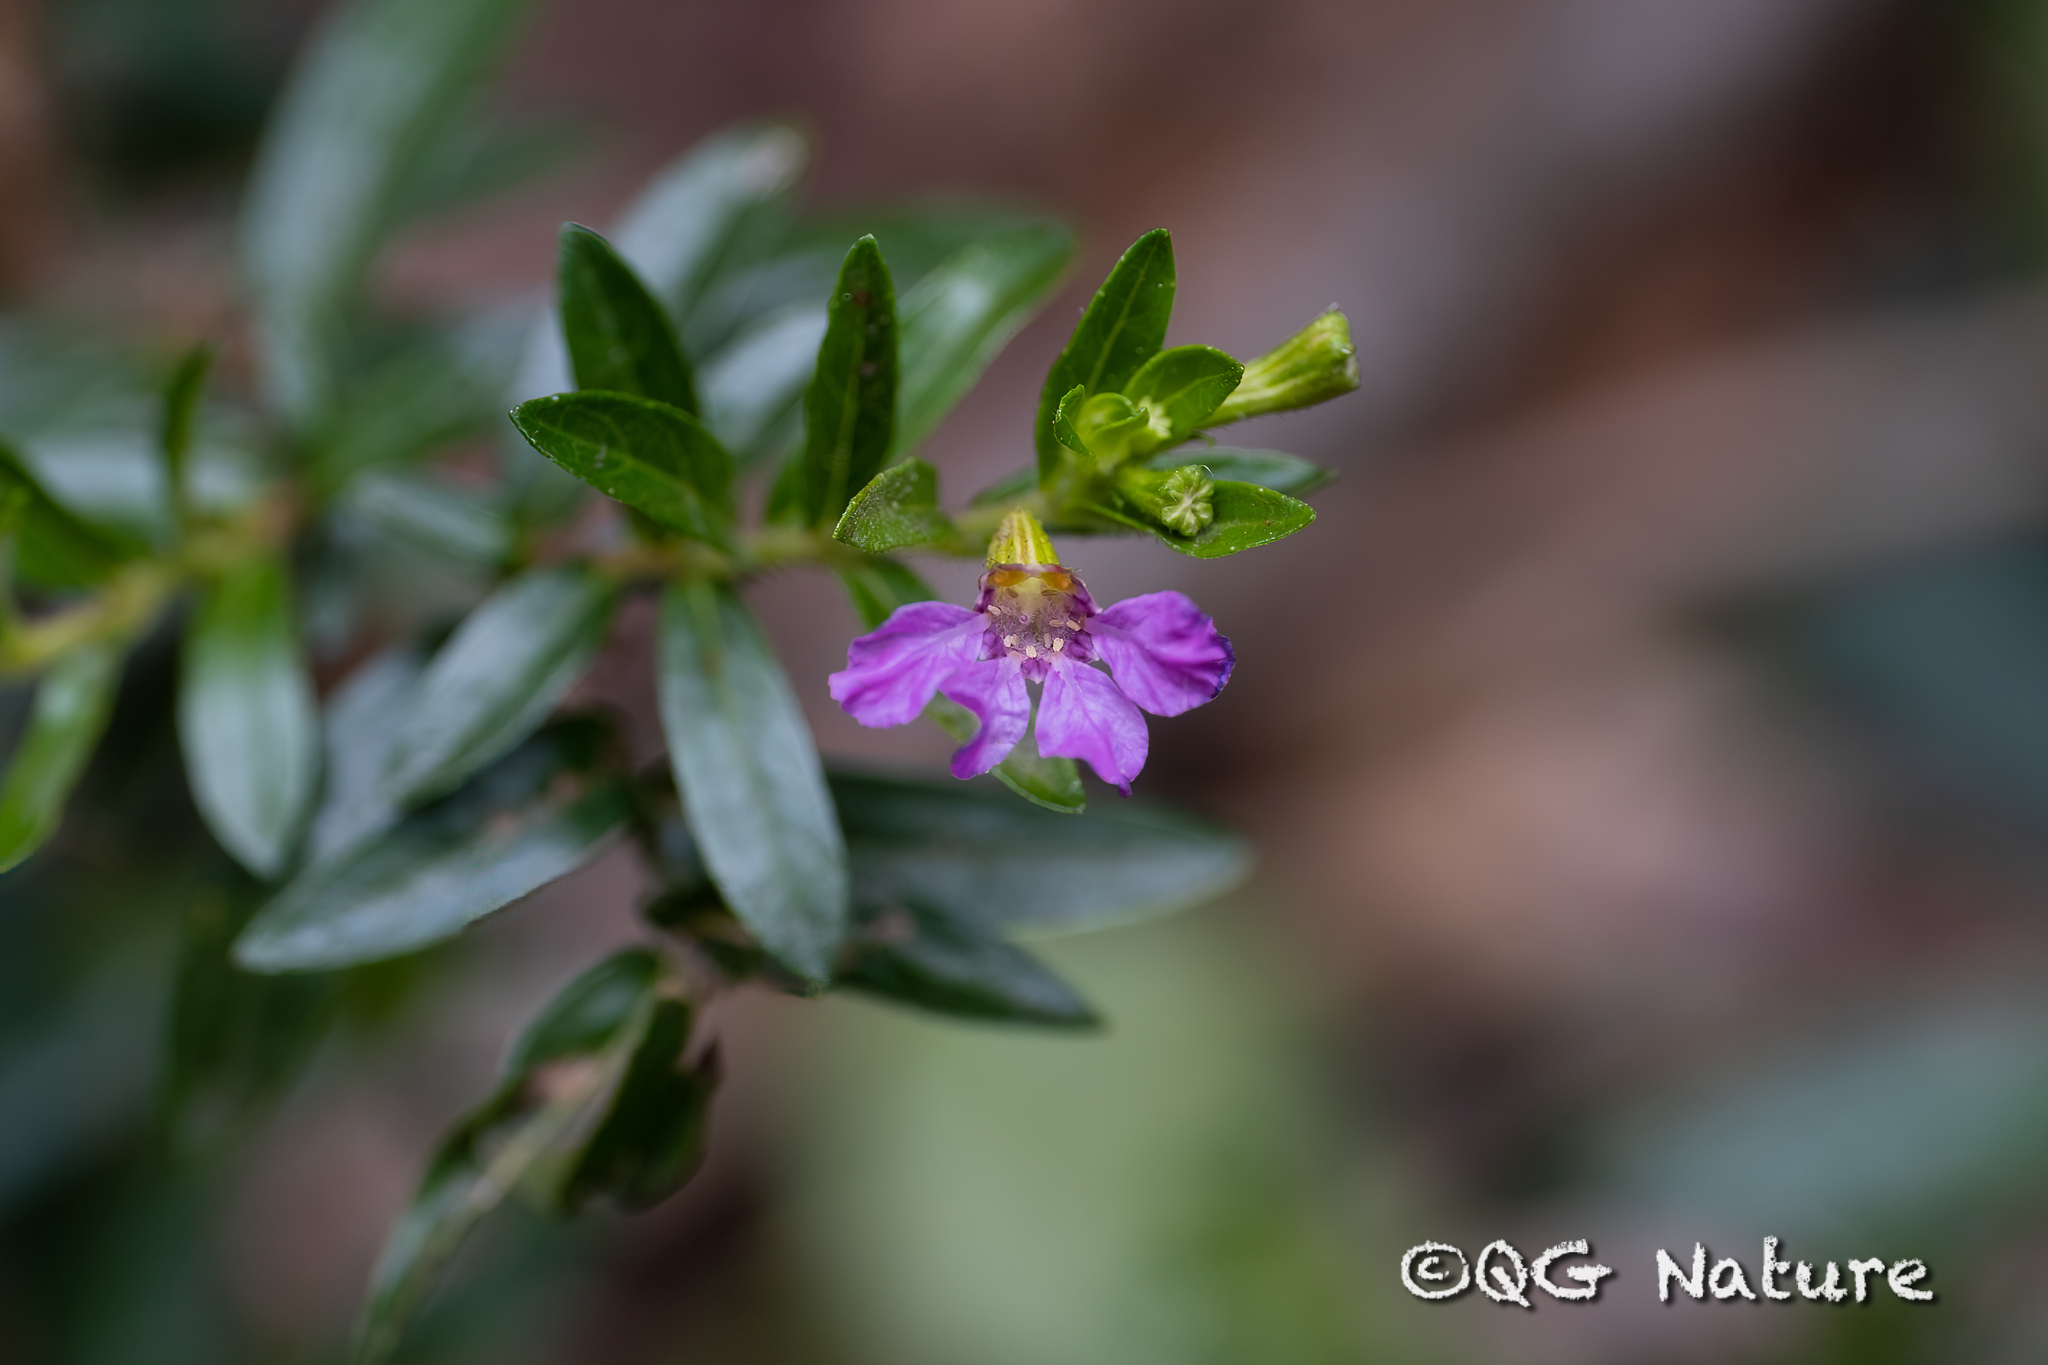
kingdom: Plantae
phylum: Tracheophyta
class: Magnoliopsida
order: Myrtales
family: Lythraceae
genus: Cuphea
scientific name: Cuphea hyssopifolia
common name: False heather
